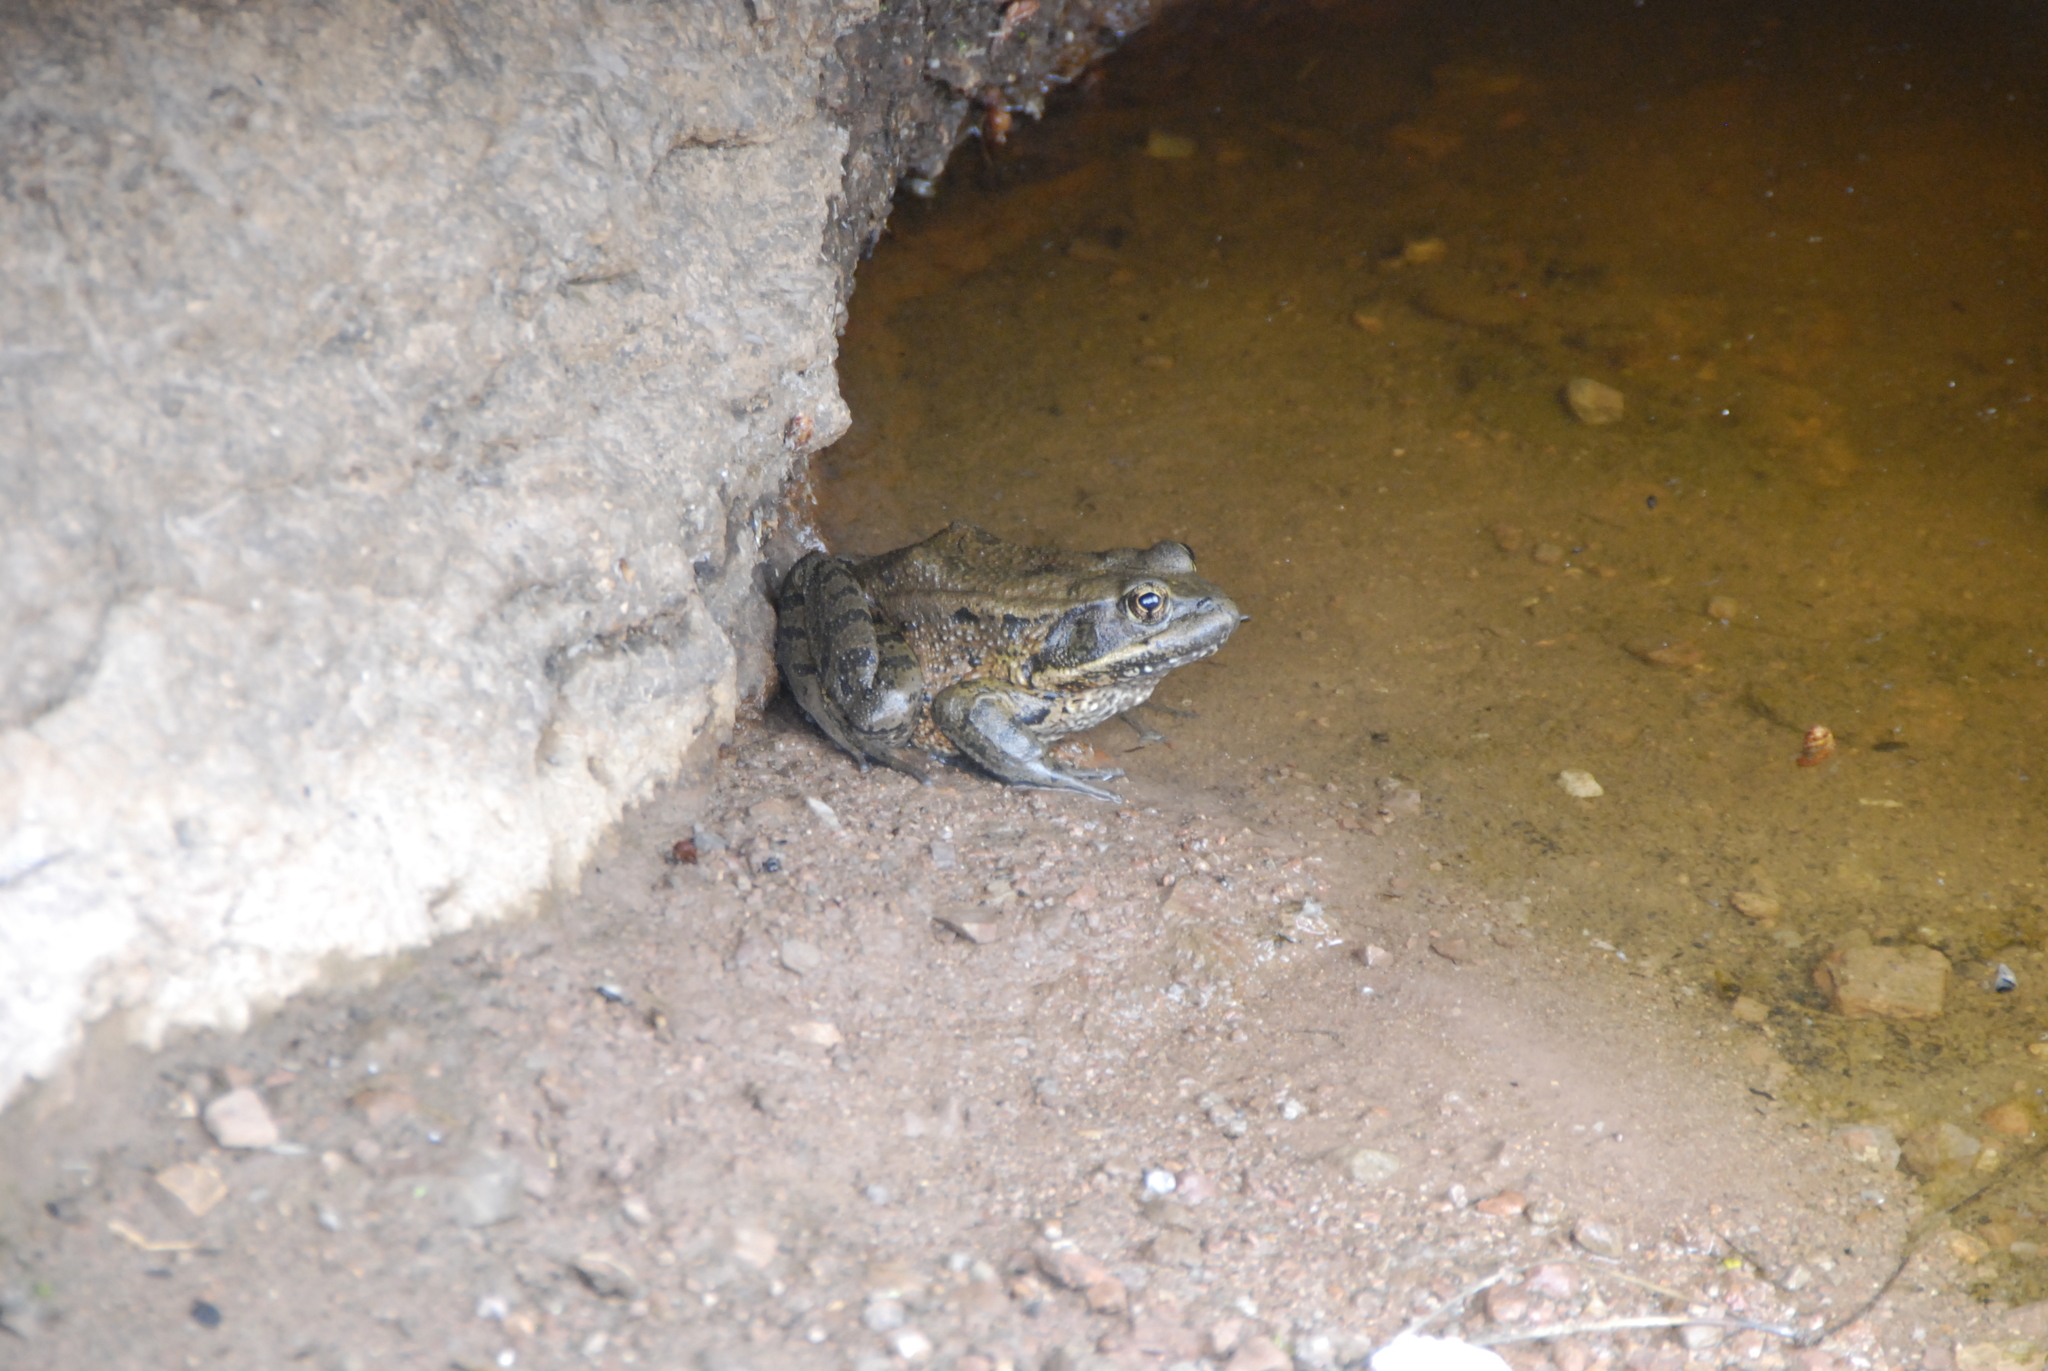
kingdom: Animalia
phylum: Chordata
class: Amphibia
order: Anura
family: Ranidae
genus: Rana
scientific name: Rana draytonii
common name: California red-legged frog
